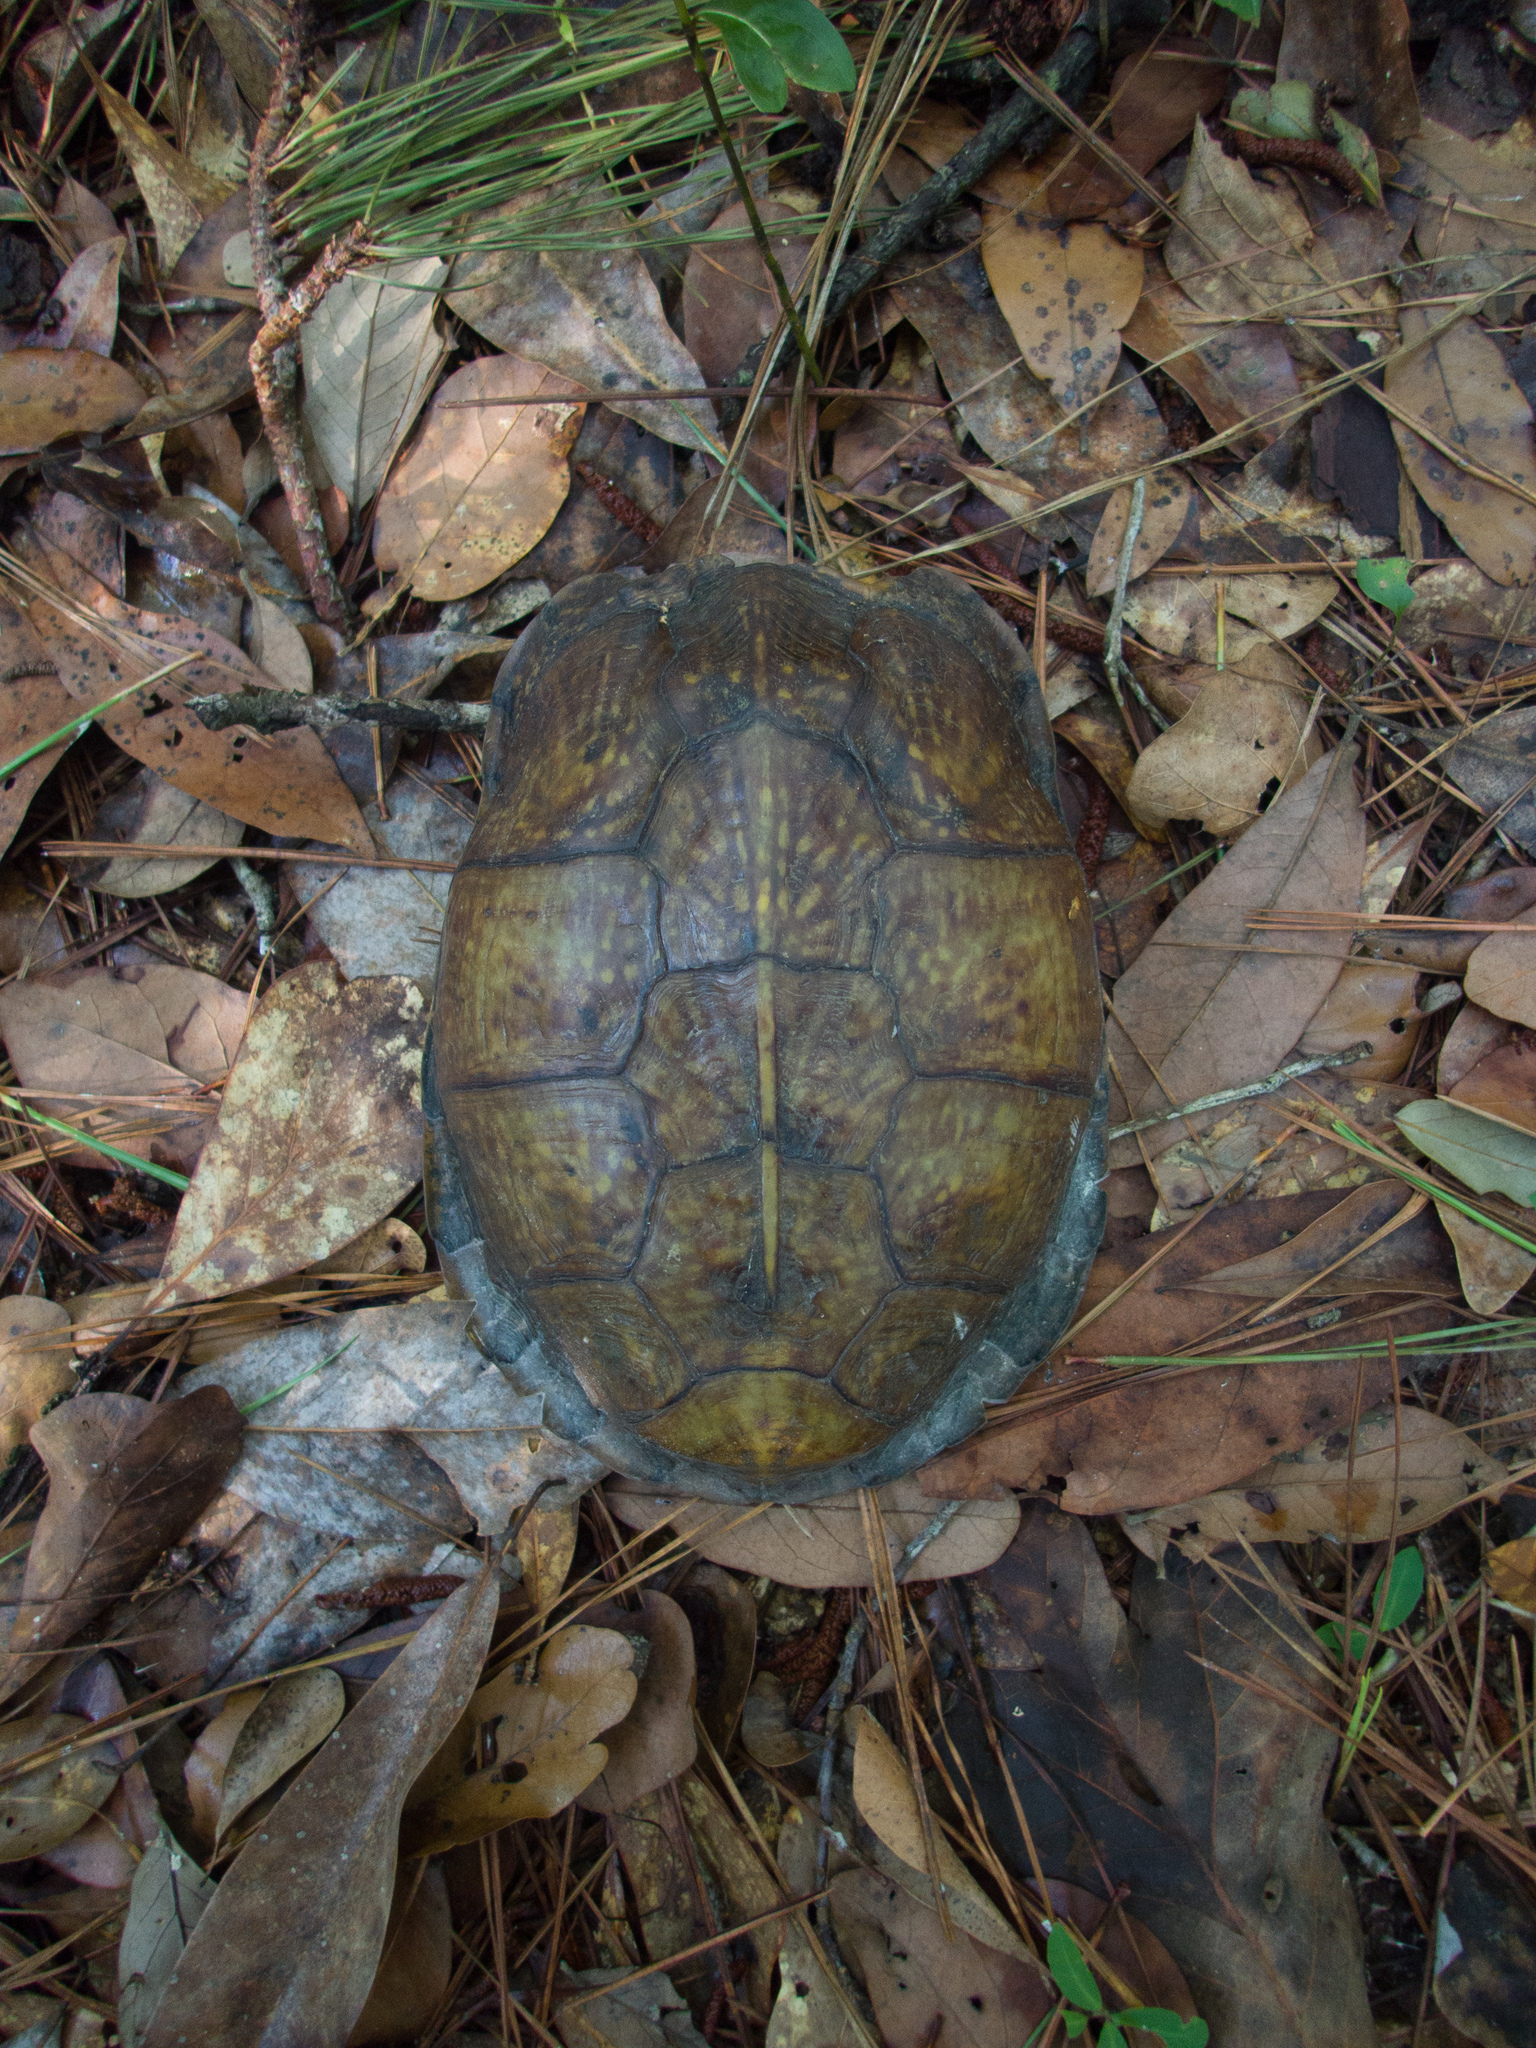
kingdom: Animalia
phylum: Chordata
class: Testudines
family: Emydidae
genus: Terrapene
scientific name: Terrapene carolina
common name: Common box turtle
